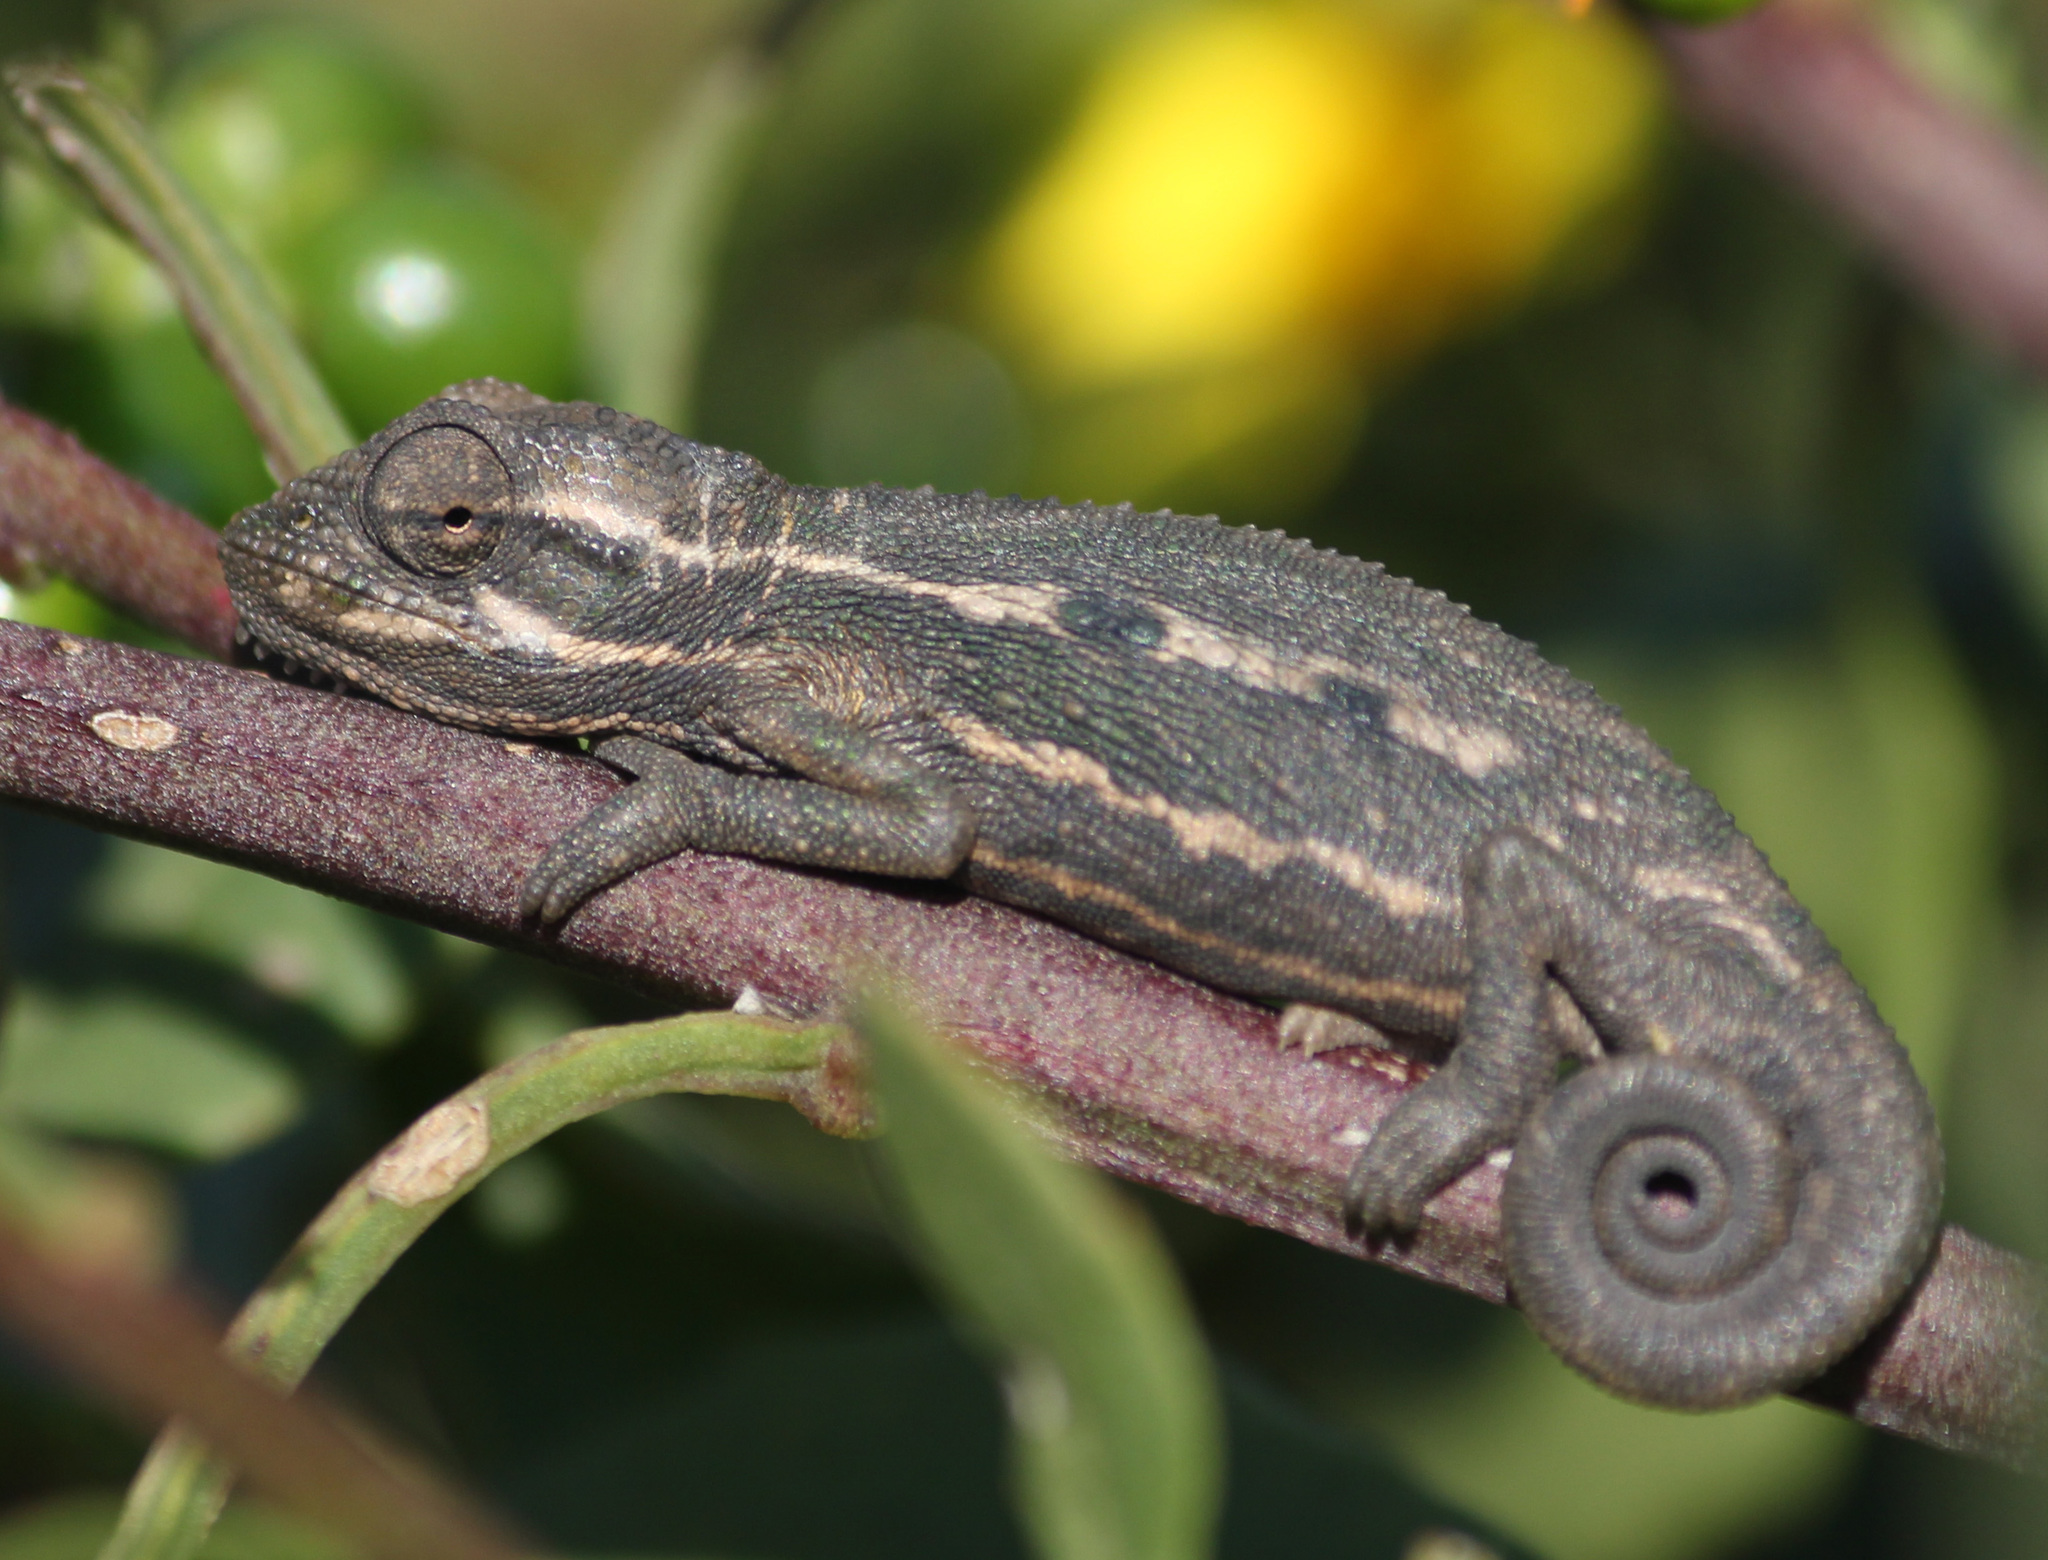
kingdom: Animalia
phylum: Chordata
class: Squamata
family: Chamaeleonidae
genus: Bradypodion
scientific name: Bradypodion pumilum
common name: Cape dwarf chameleon
